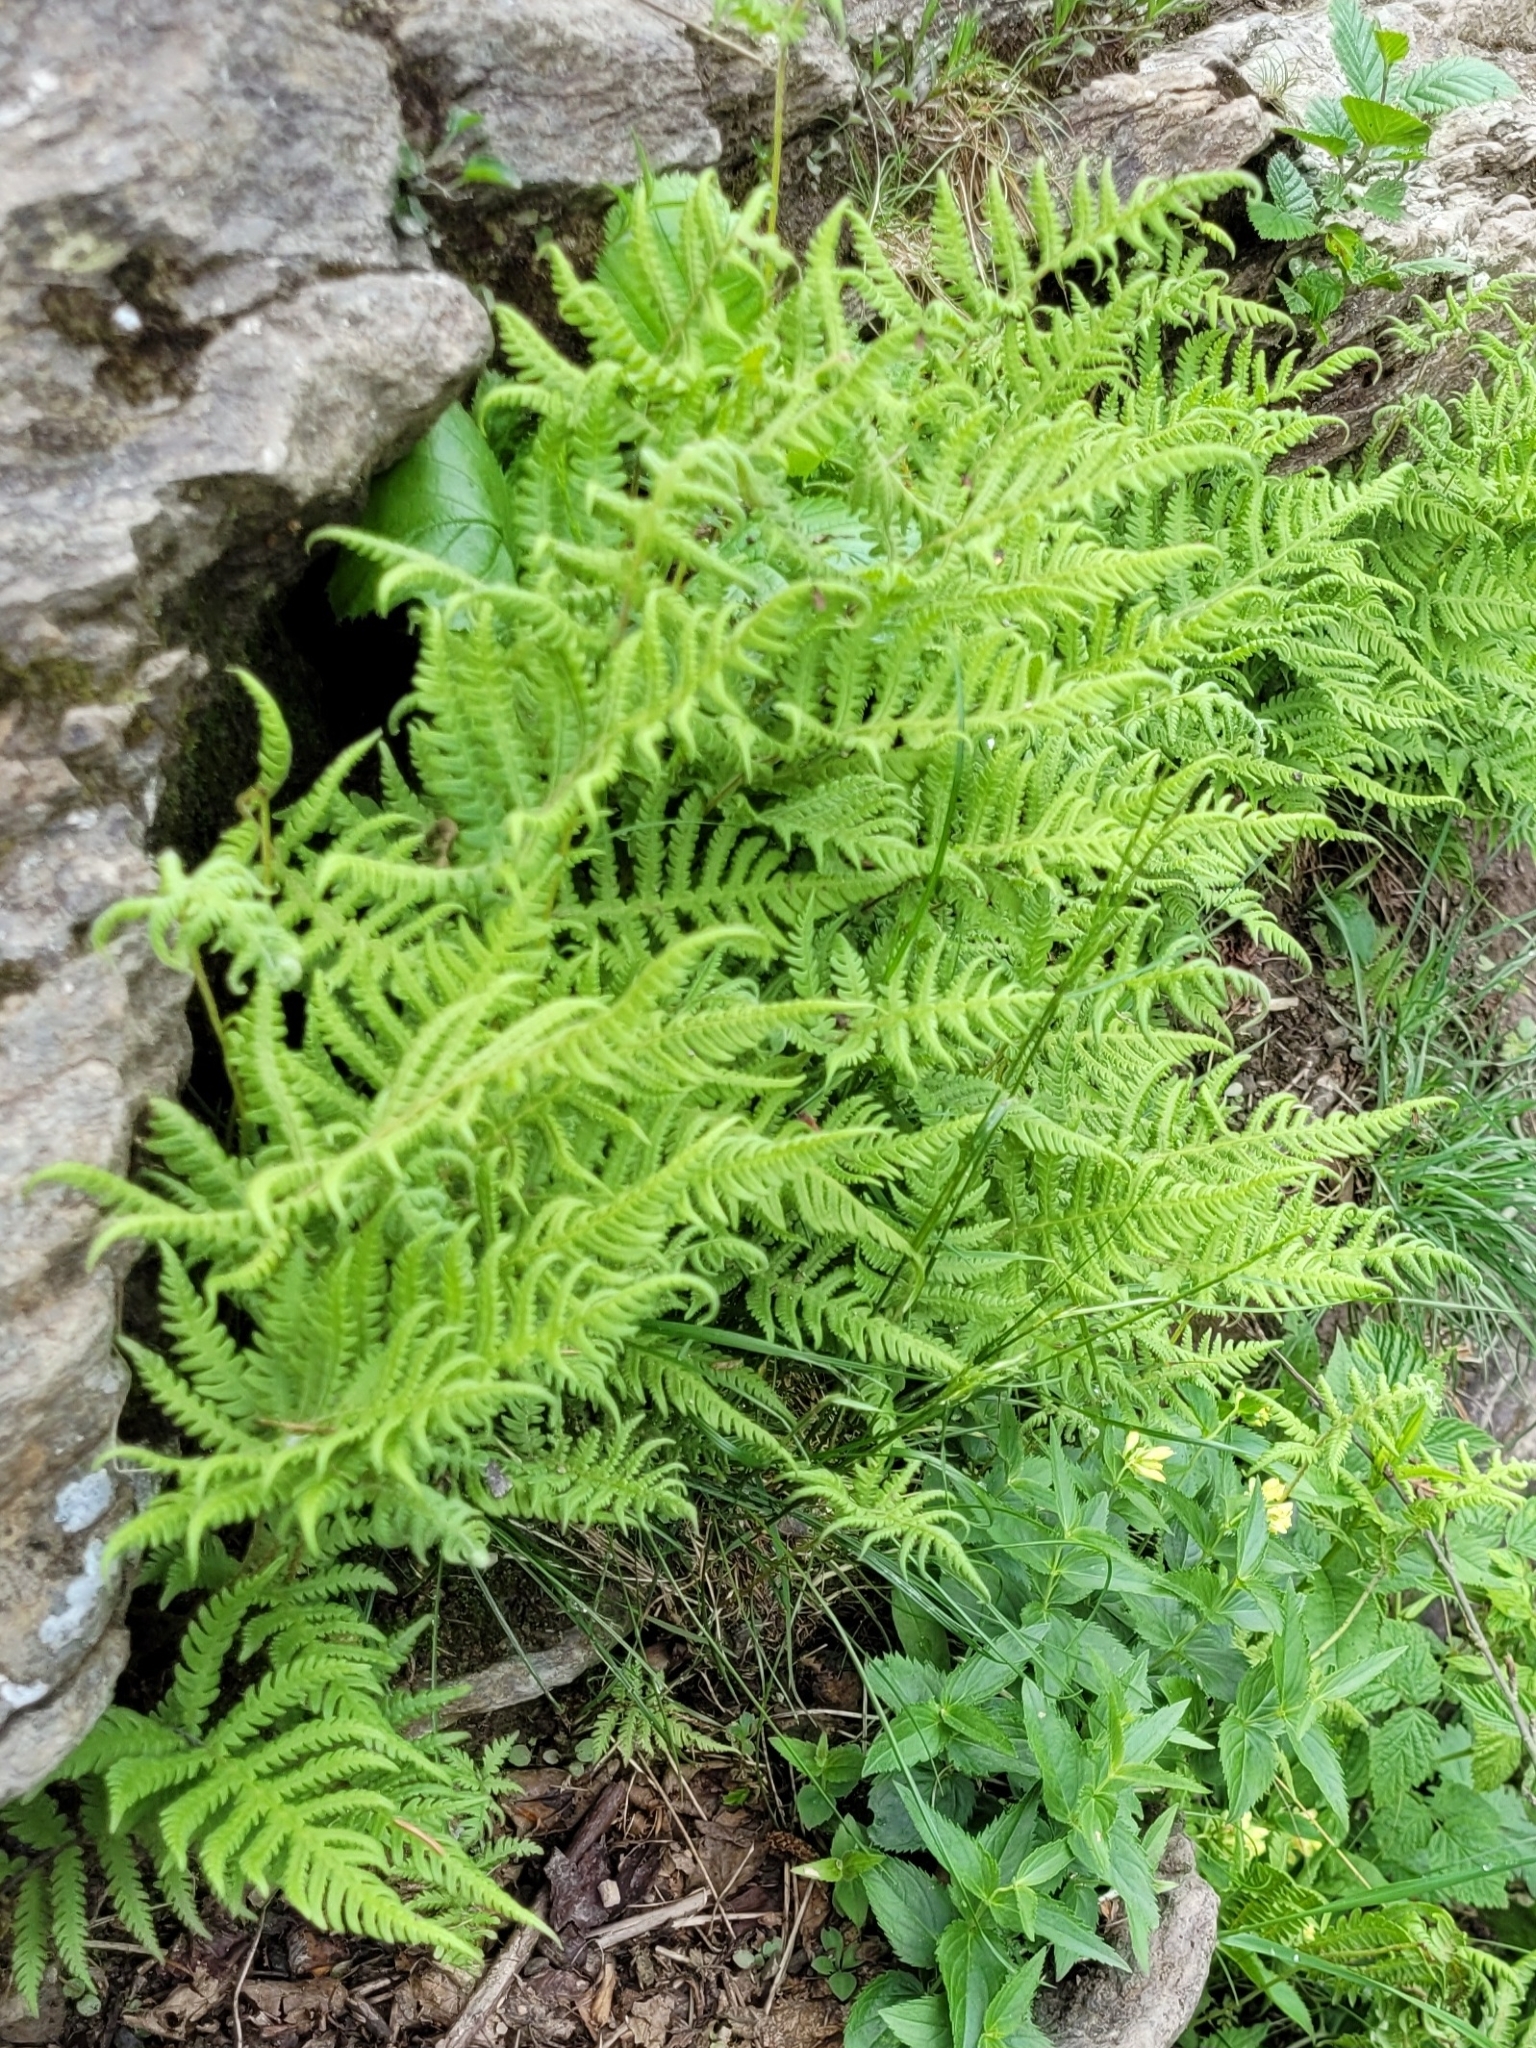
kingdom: Plantae
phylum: Tracheophyta
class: Polypodiopsida
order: Polypodiales
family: Thelypteridaceae
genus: Phegopteris
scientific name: Phegopteris connectilis
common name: Beech fern
